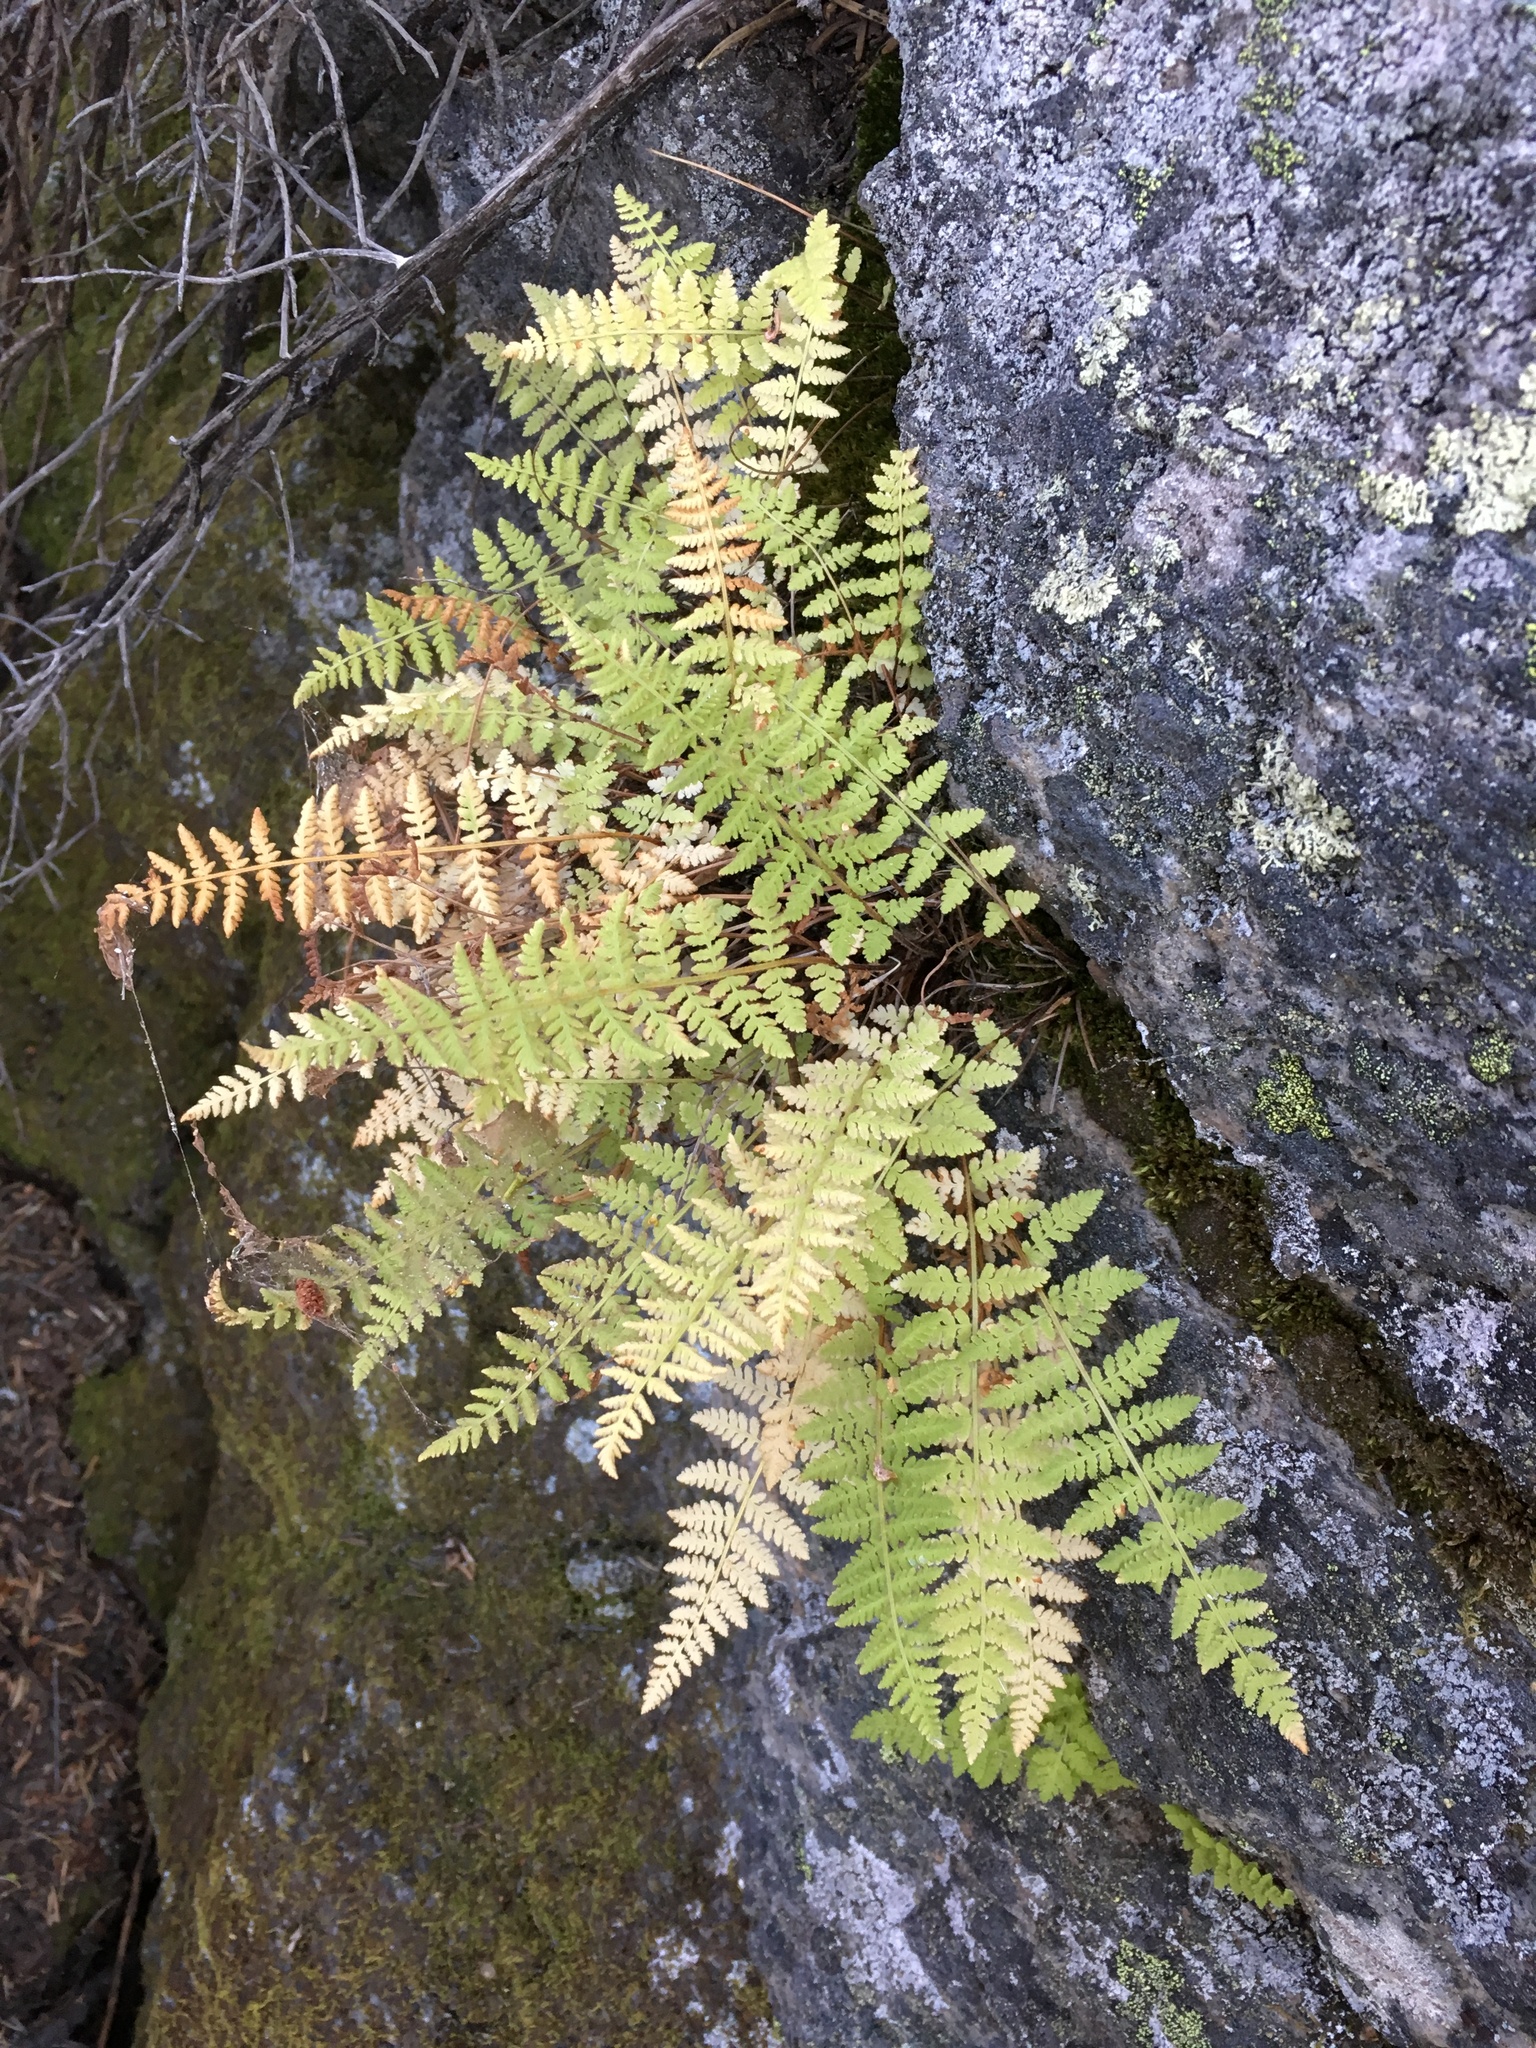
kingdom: Plantae
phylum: Tracheophyta
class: Polypodiopsida
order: Polypodiales
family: Woodsiaceae
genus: Physematium
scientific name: Physematium scopulinum
